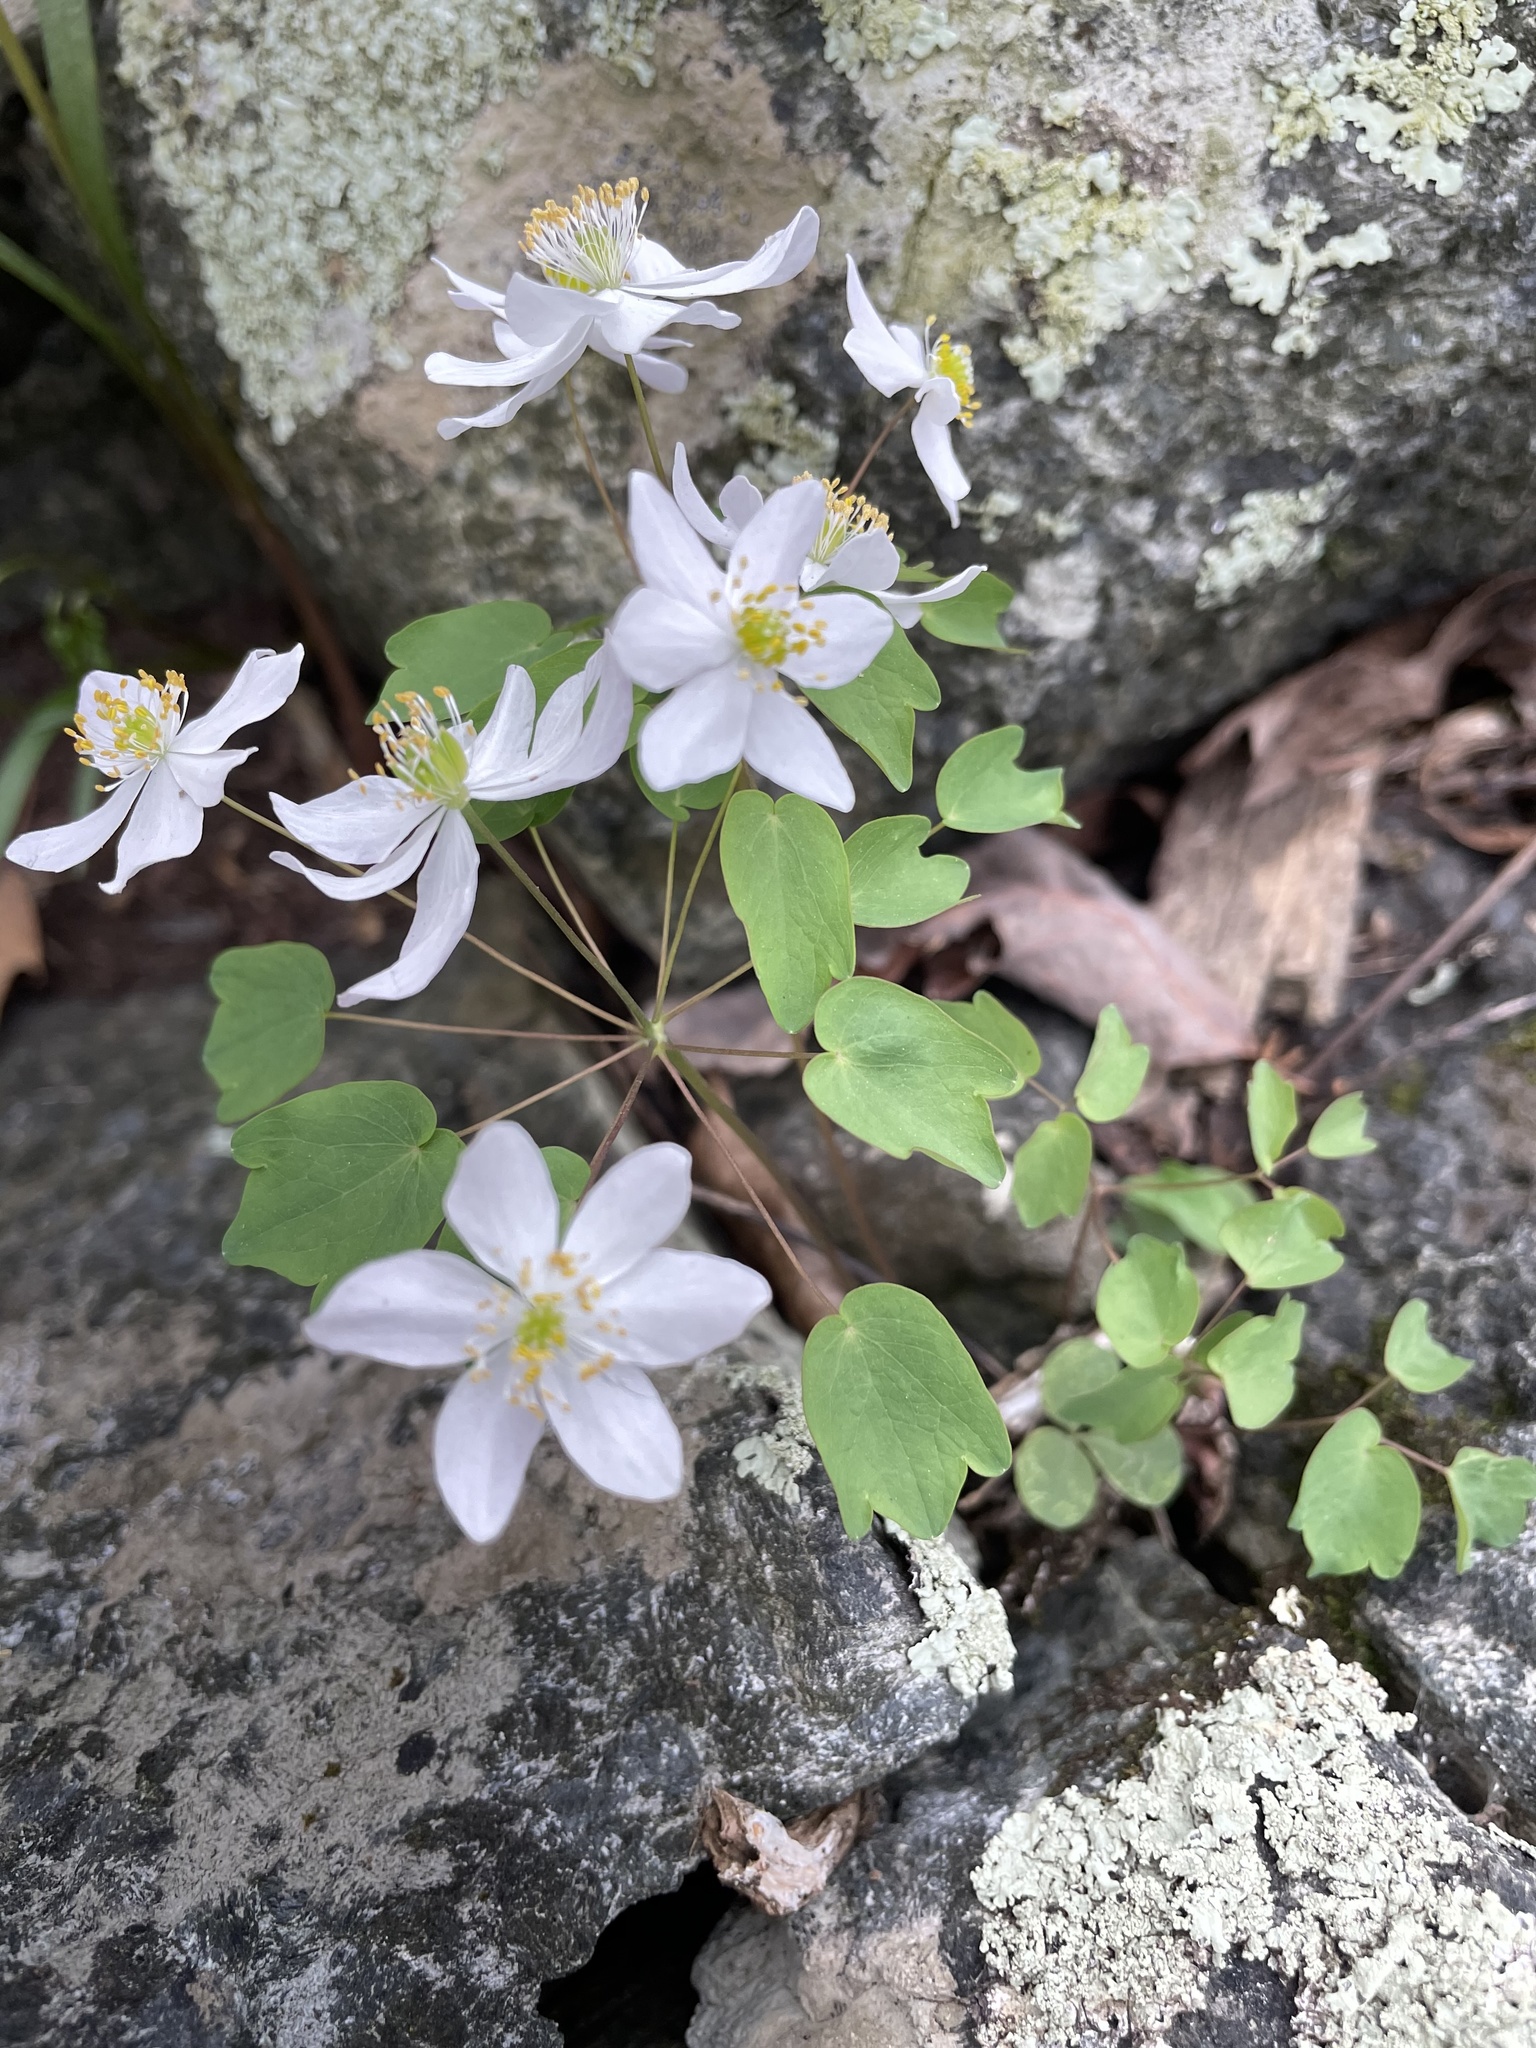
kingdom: Plantae
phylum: Tracheophyta
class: Magnoliopsida
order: Ranunculales
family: Ranunculaceae
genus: Thalictrum
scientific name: Thalictrum thalictroides
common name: Rue-anemone
